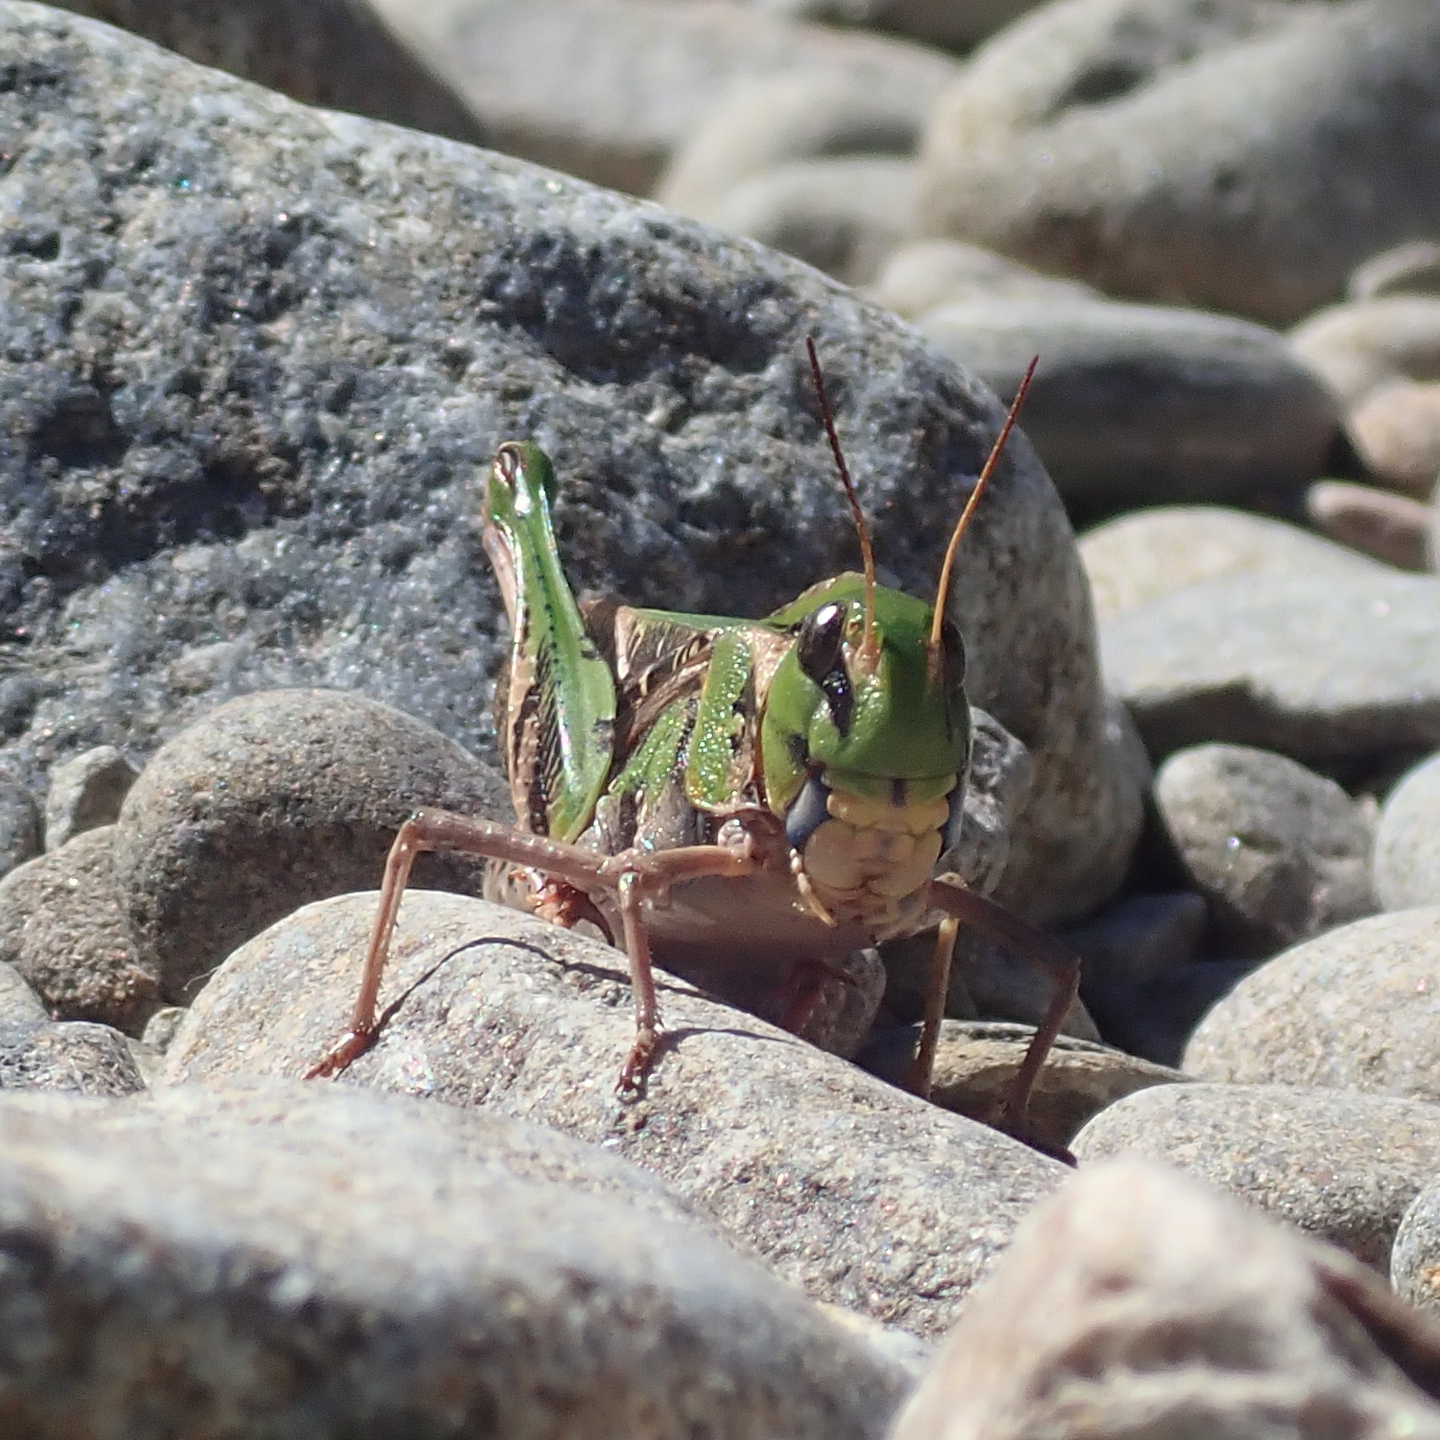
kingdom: Animalia
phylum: Arthropoda
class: Insecta
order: Orthoptera
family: Acrididae
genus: Gastrimargus
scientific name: Gastrimargus musicus
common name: Yellow-winged locust
